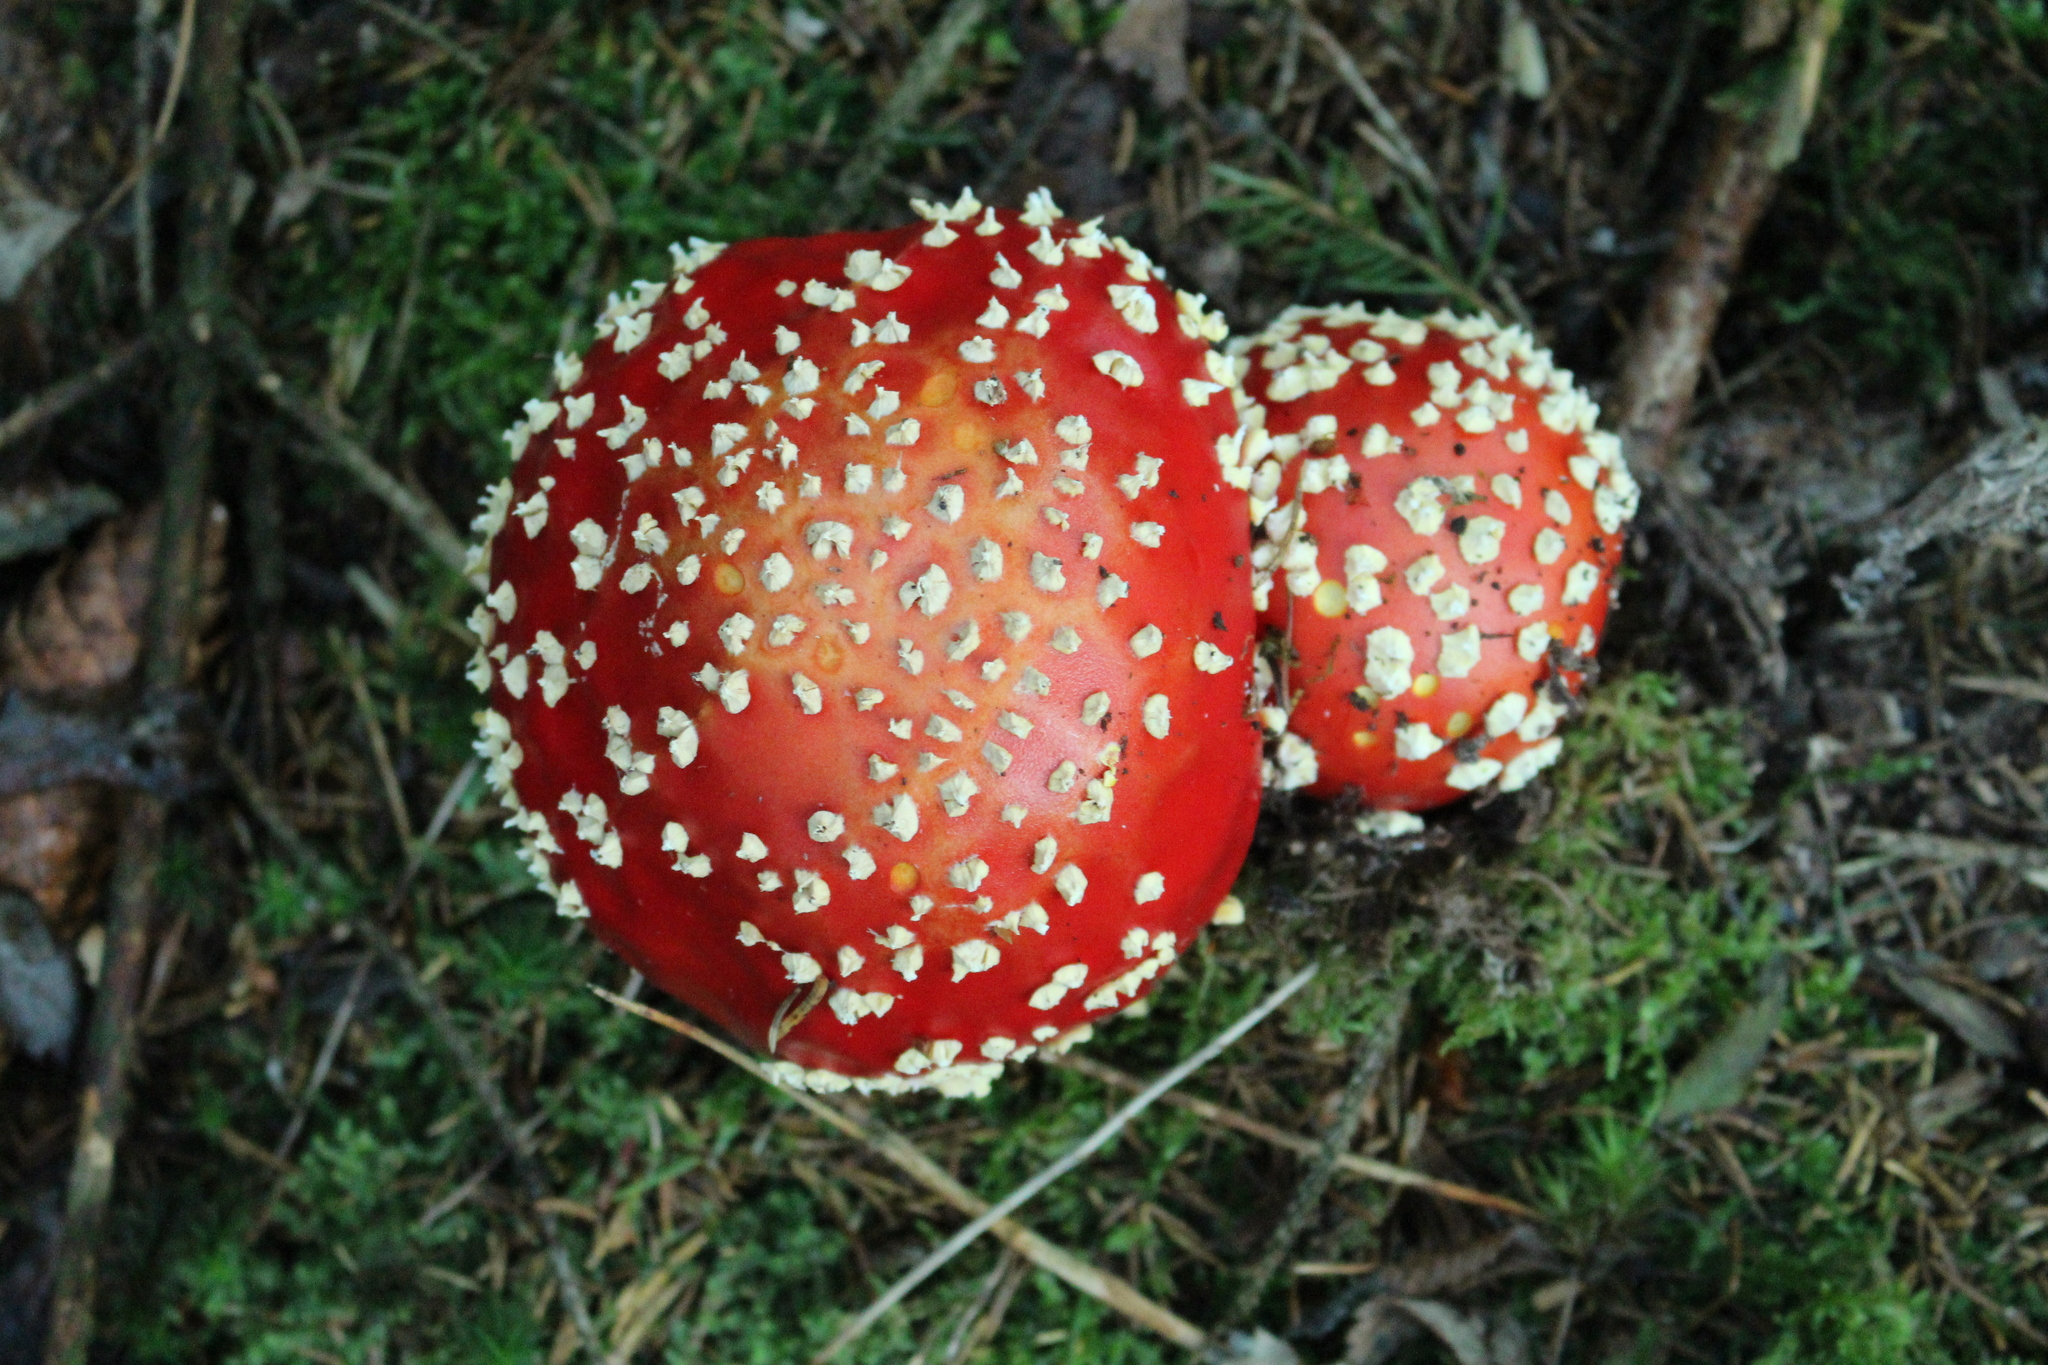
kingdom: Fungi
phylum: Basidiomycota
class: Agaricomycetes
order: Agaricales
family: Amanitaceae
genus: Amanita
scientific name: Amanita muscaria
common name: Fly agaric
